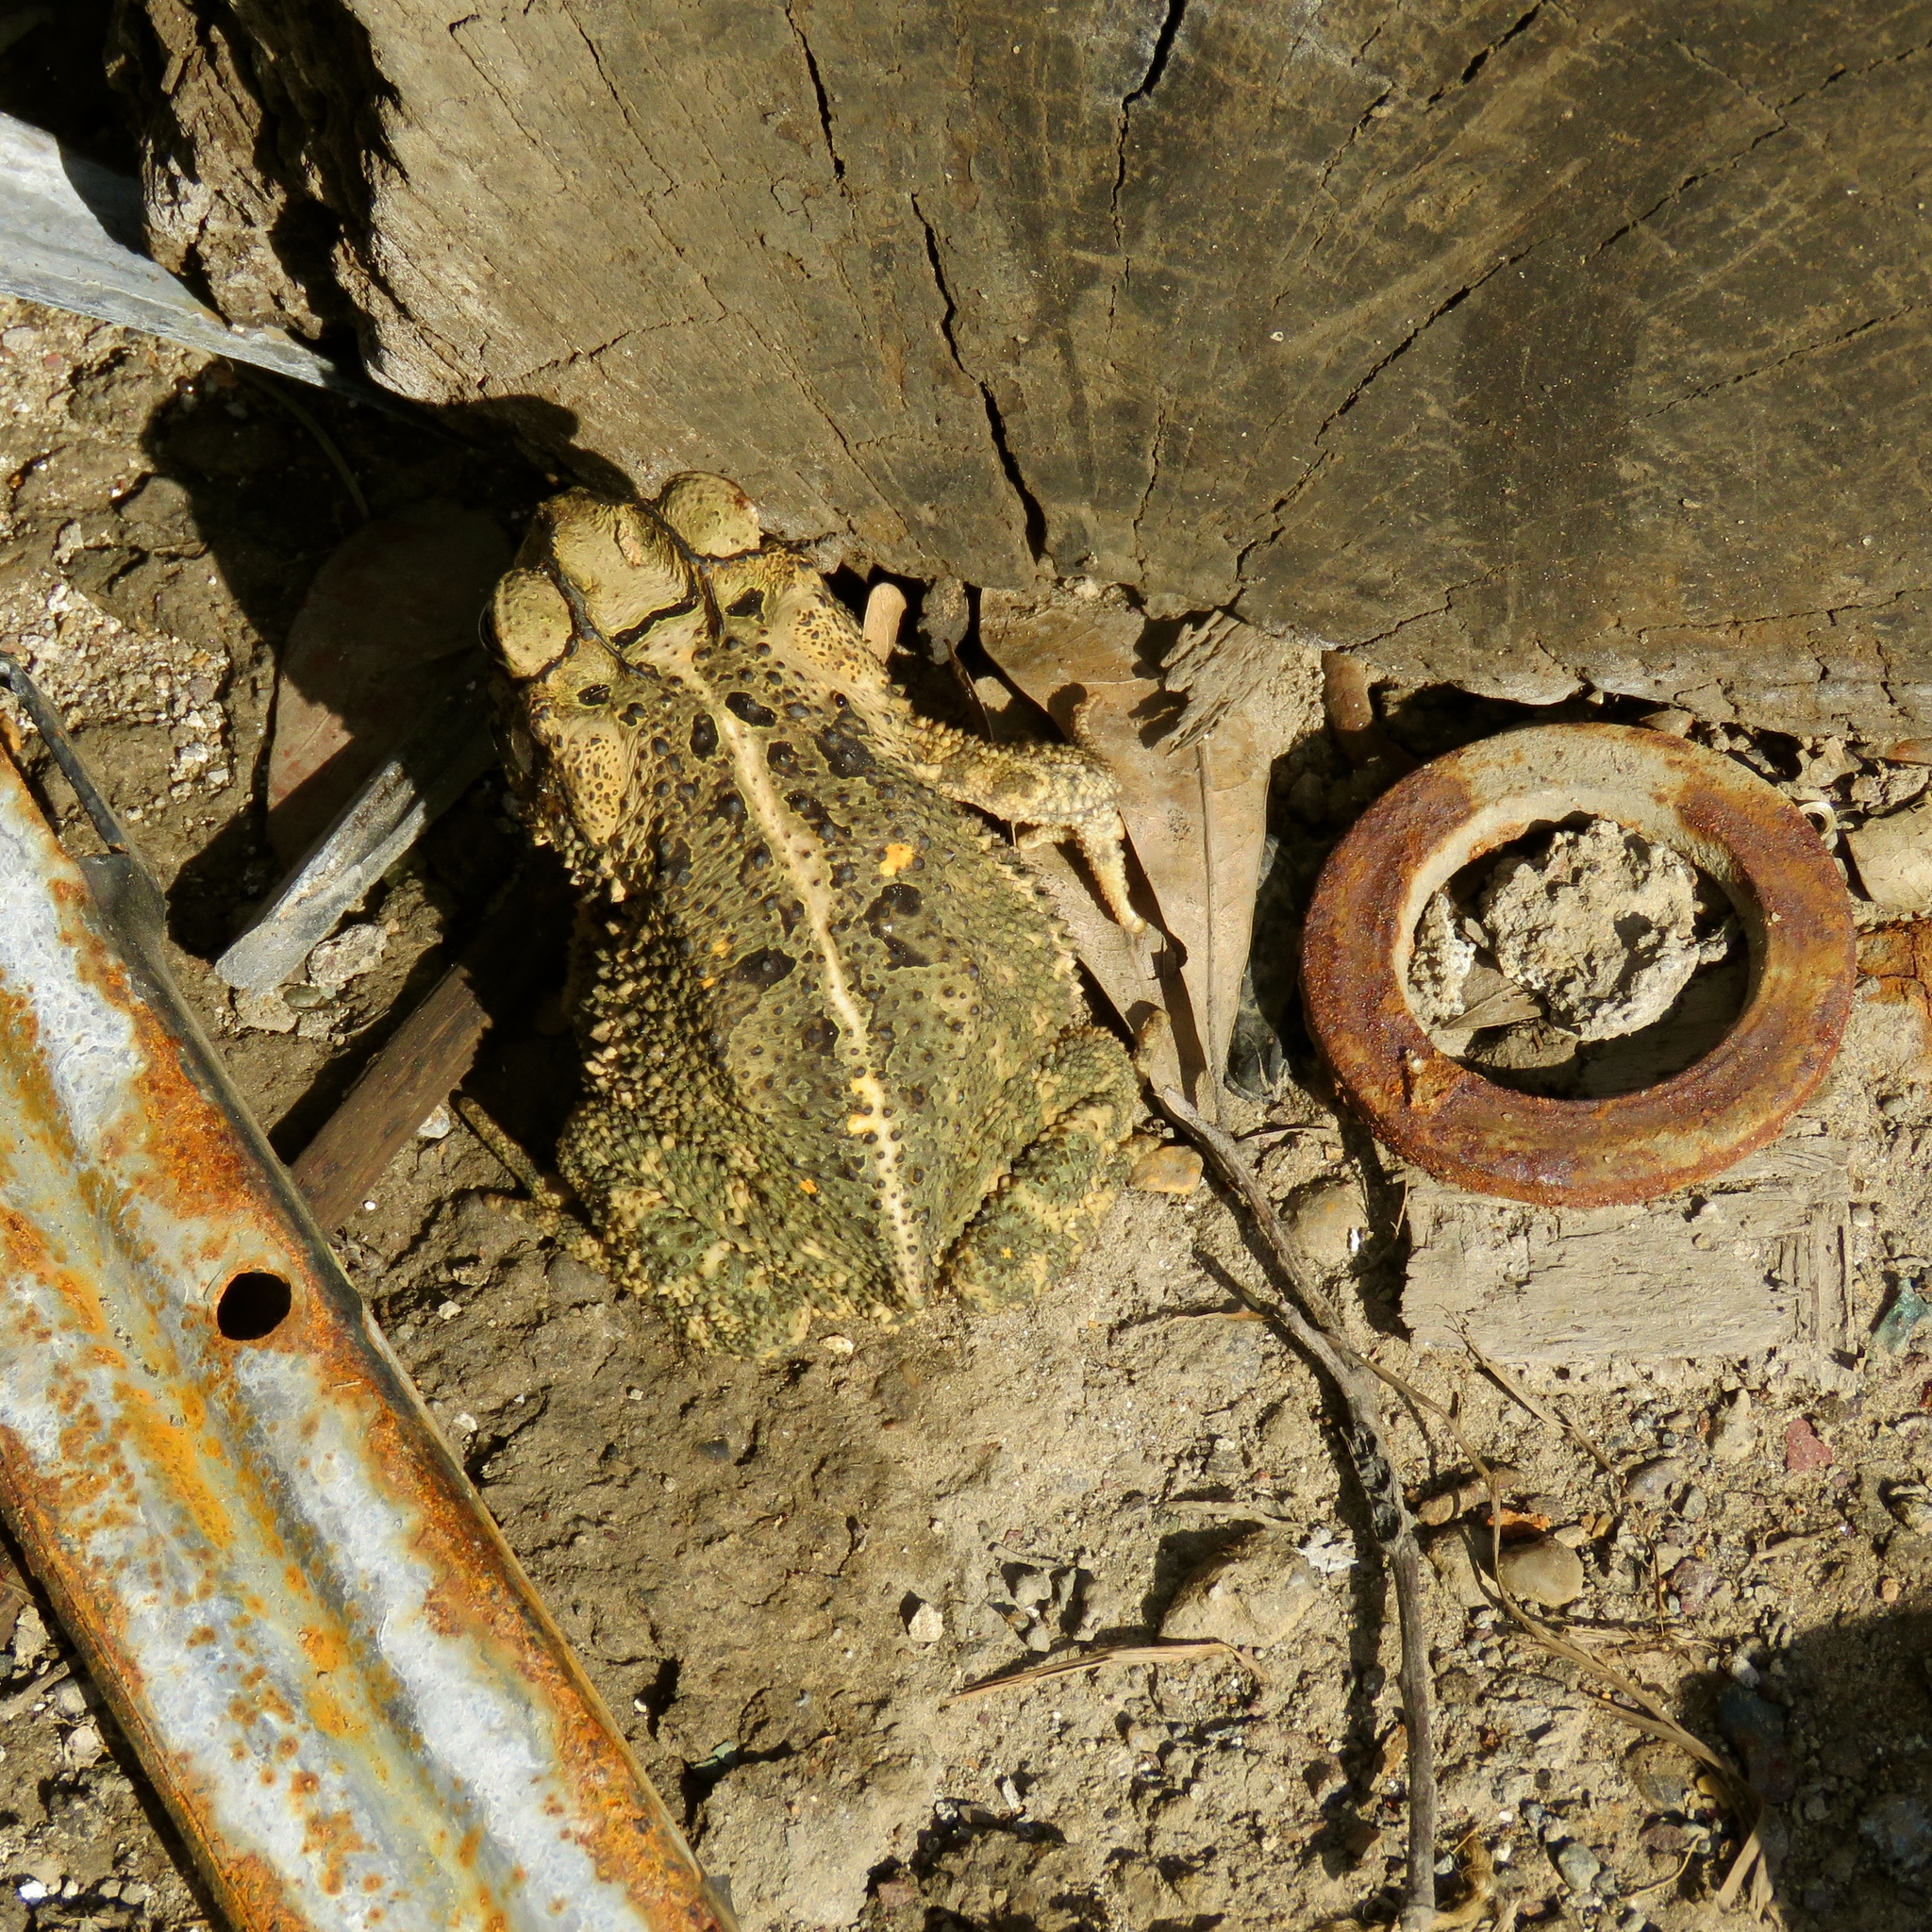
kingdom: Animalia
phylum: Chordata
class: Amphibia
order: Anura
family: Bufonidae
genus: Incilius
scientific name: Incilius nebulifer
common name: Gulf coast toad
